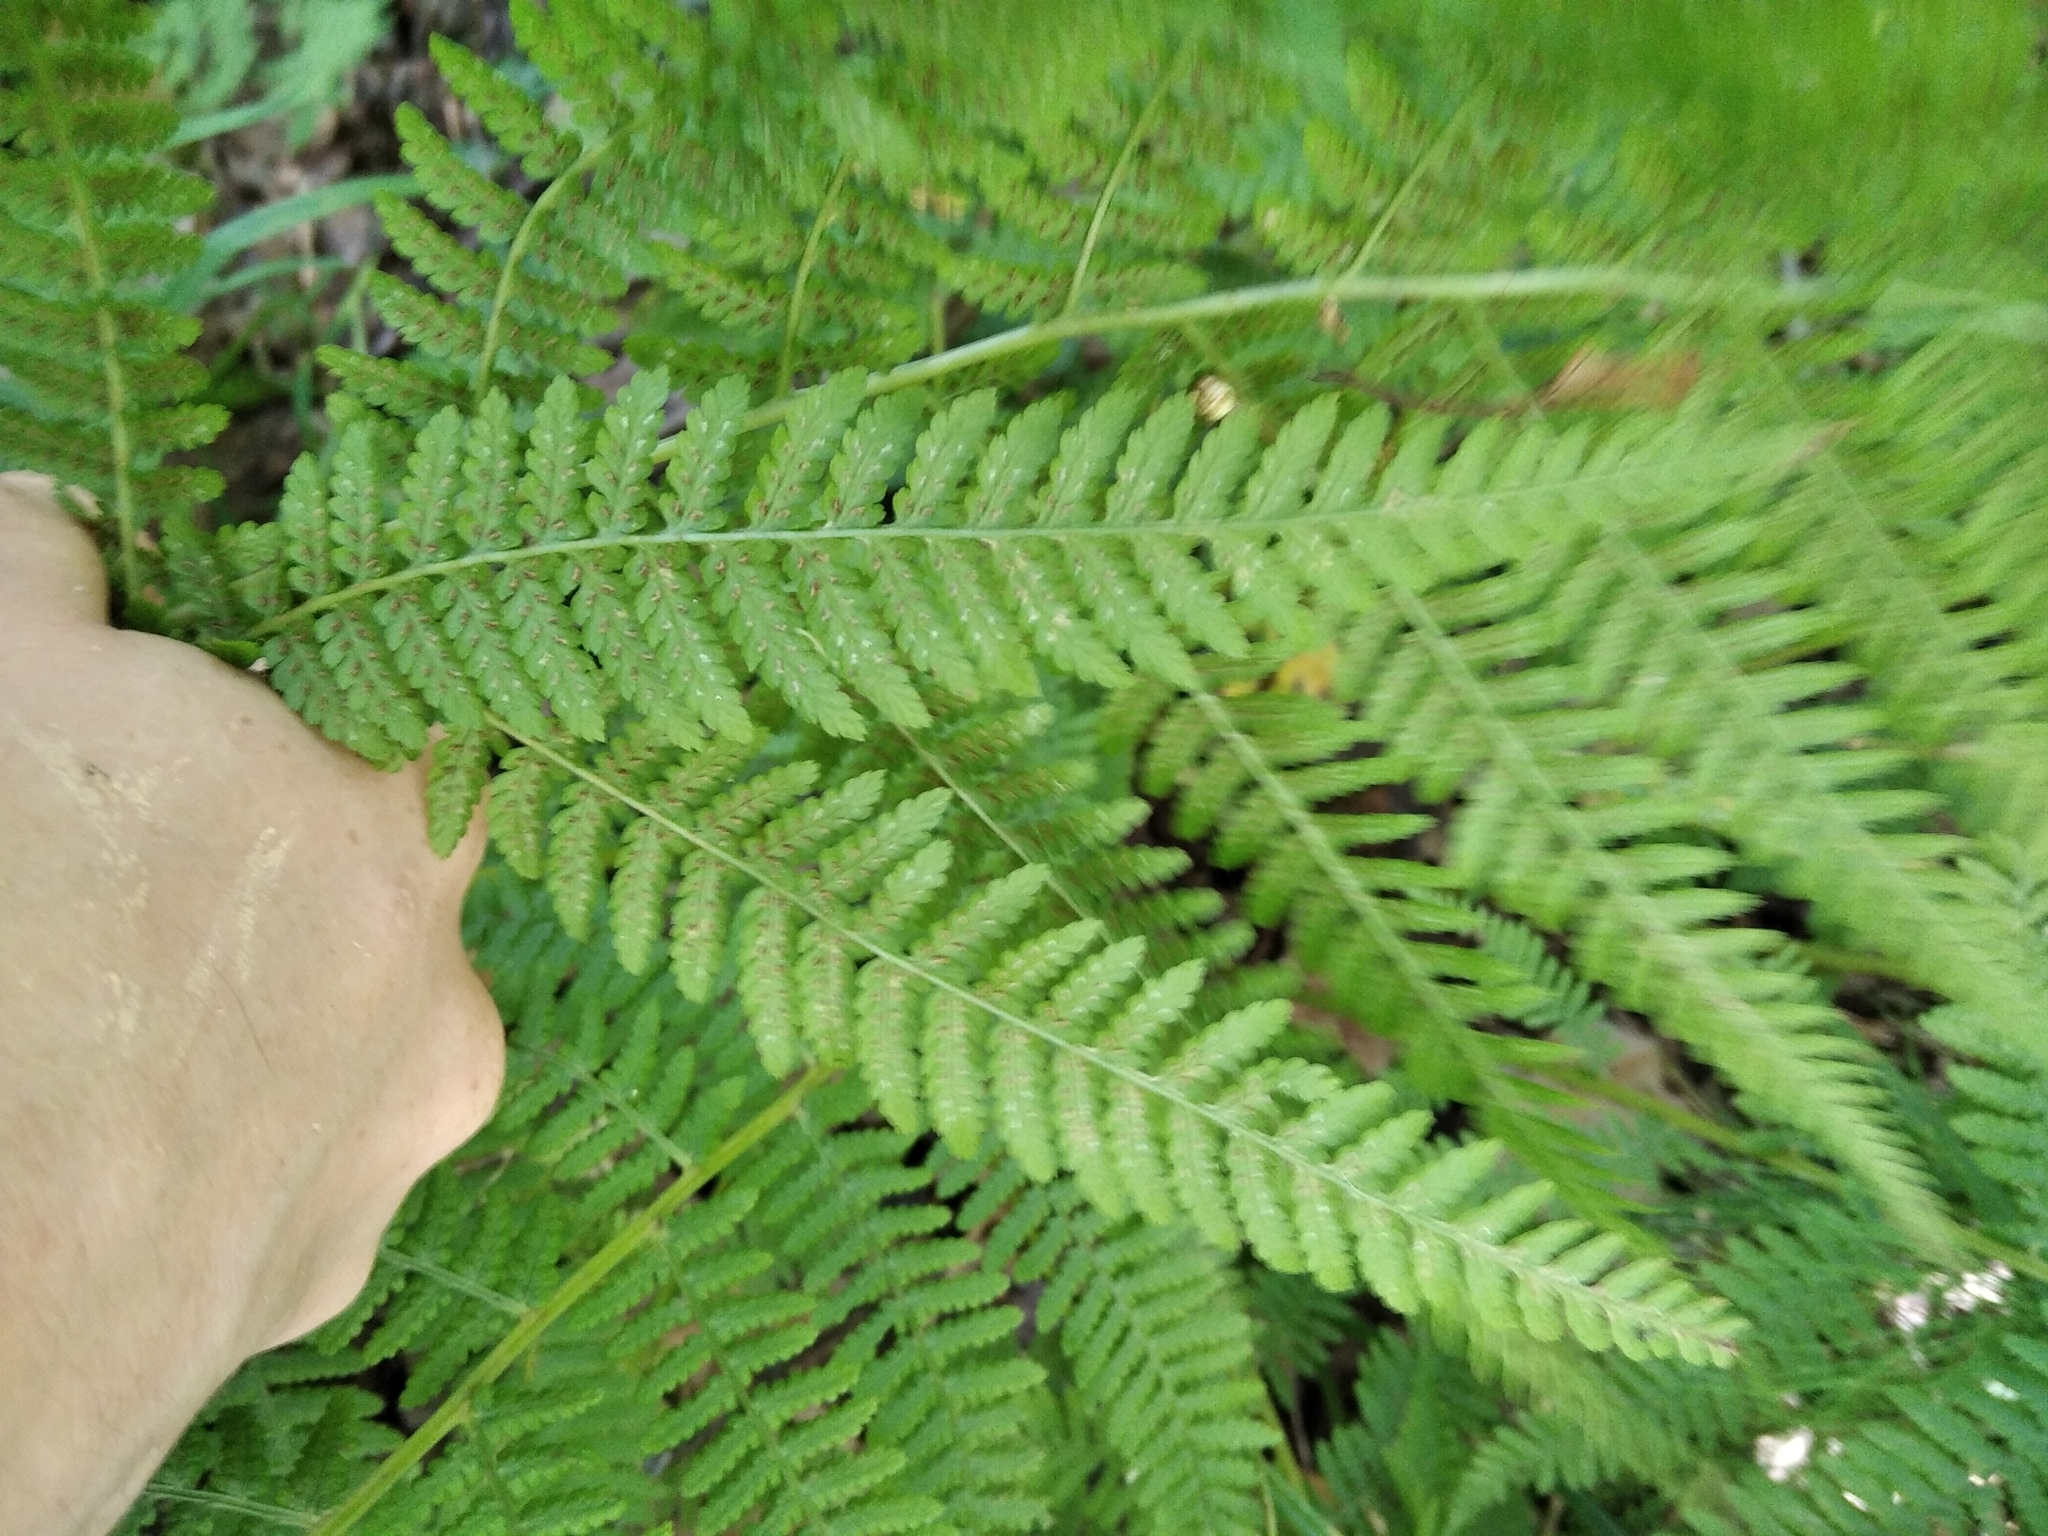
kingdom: Plantae
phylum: Tracheophyta
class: Polypodiopsida
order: Polypodiales
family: Athyriaceae
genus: Athyrium
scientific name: Athyrium filix-femina
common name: Lady fern
